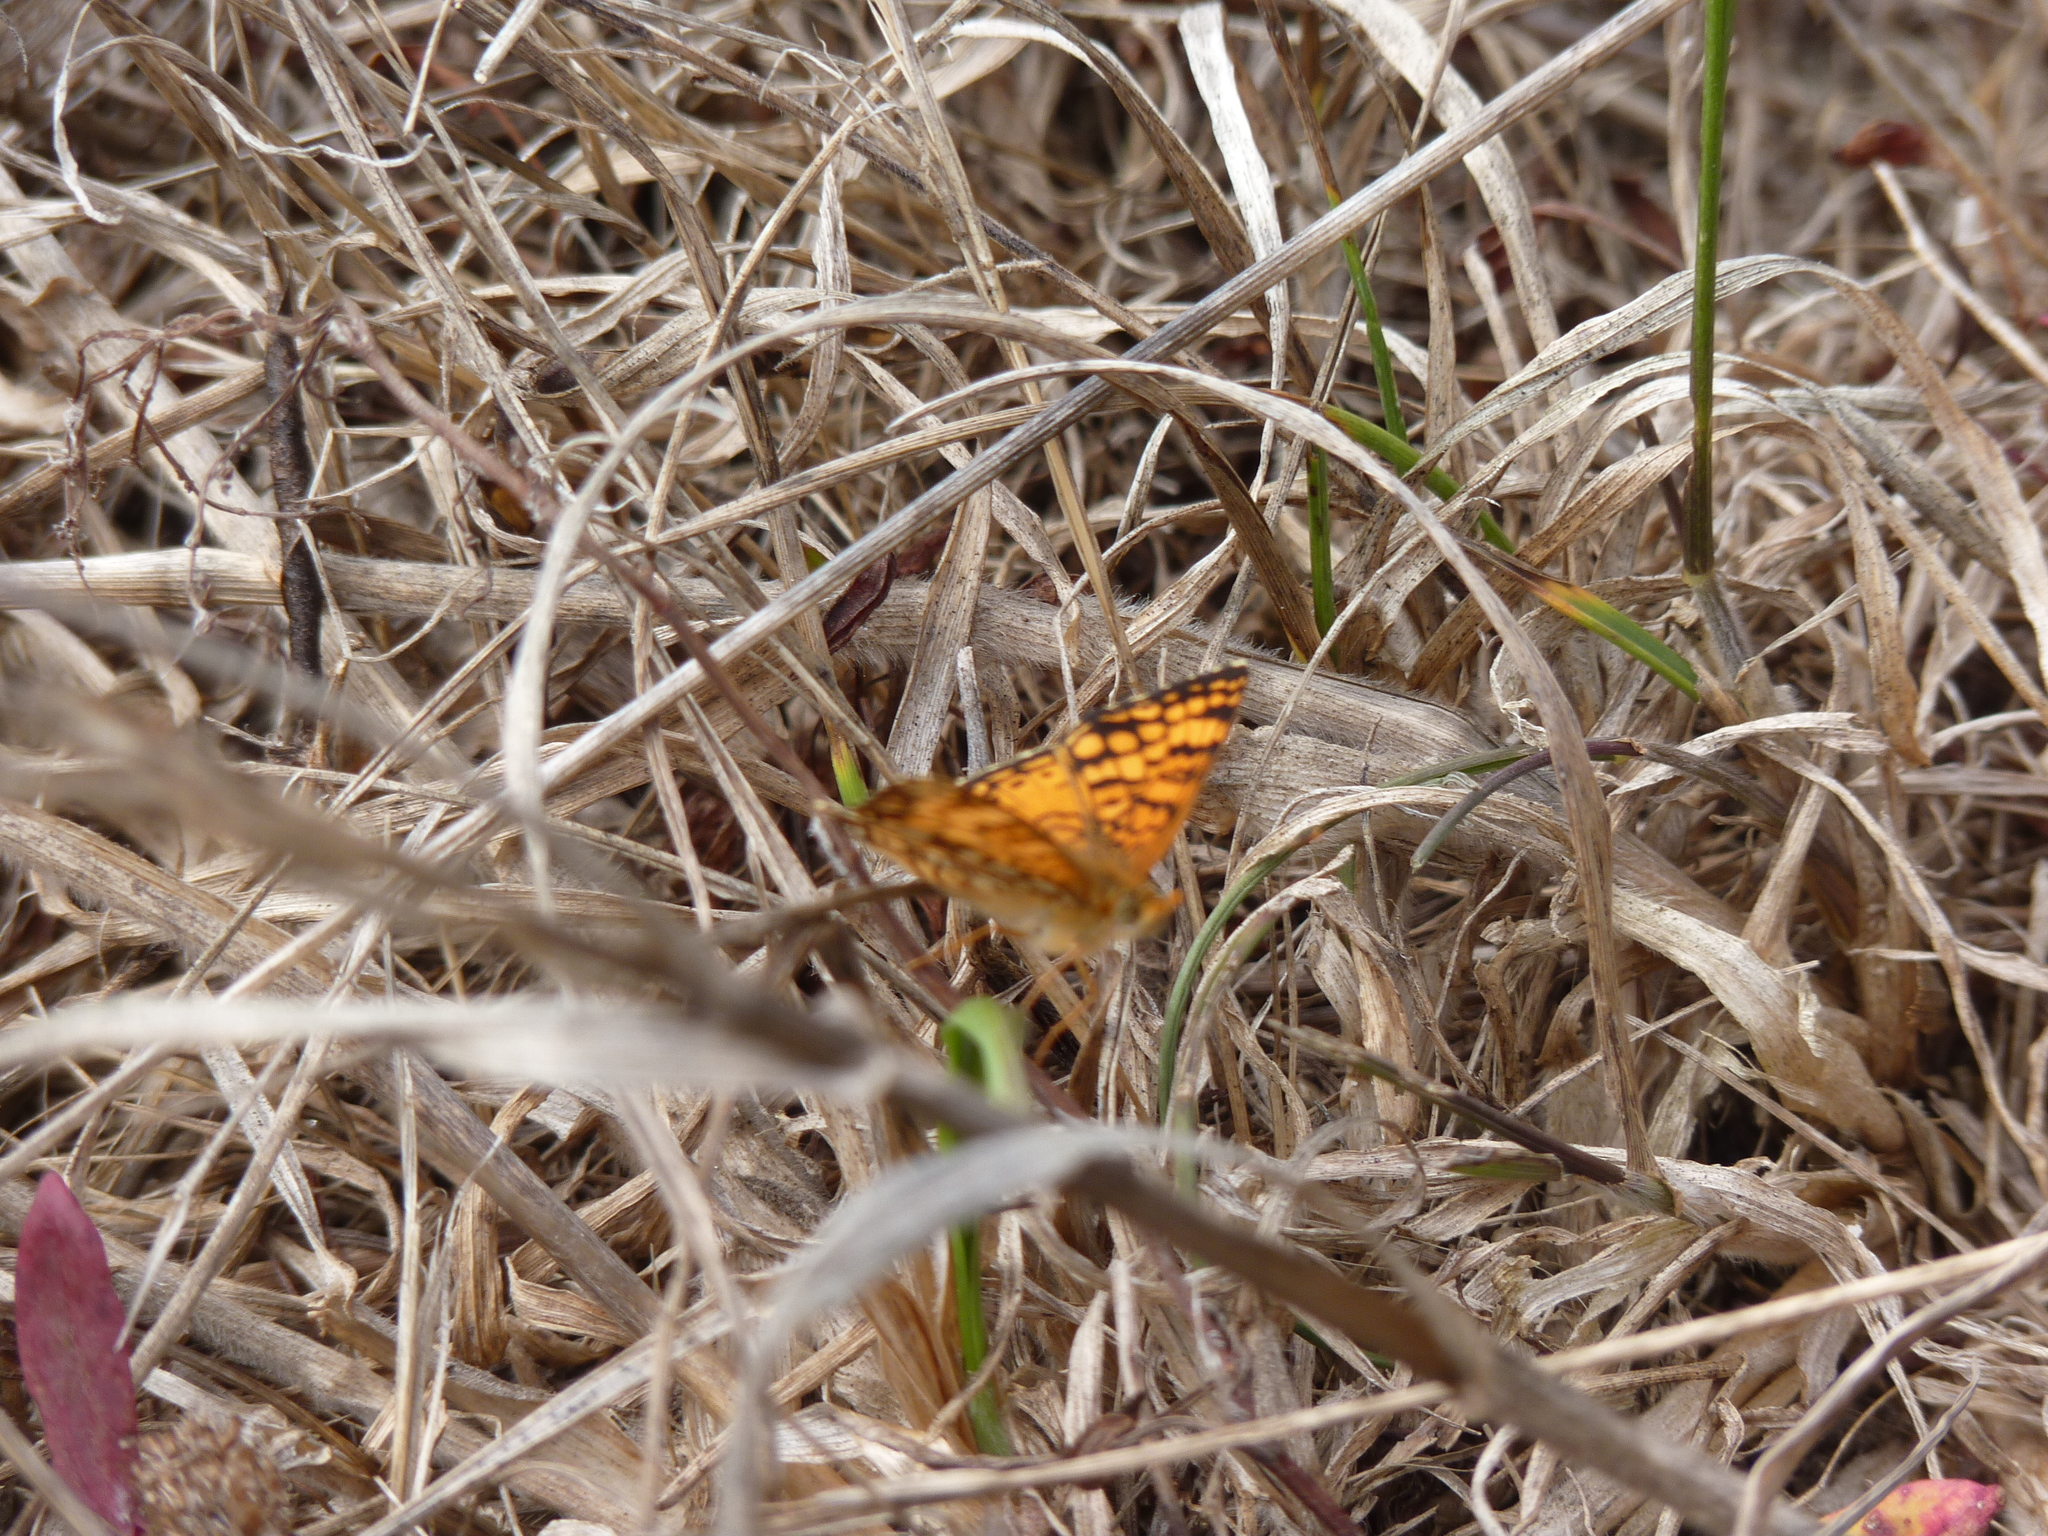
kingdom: Animalia
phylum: Arthropoda
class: Insecta
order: Lepidoptera
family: Nymphalidae
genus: Eresia
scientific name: Eresia aveyrona
